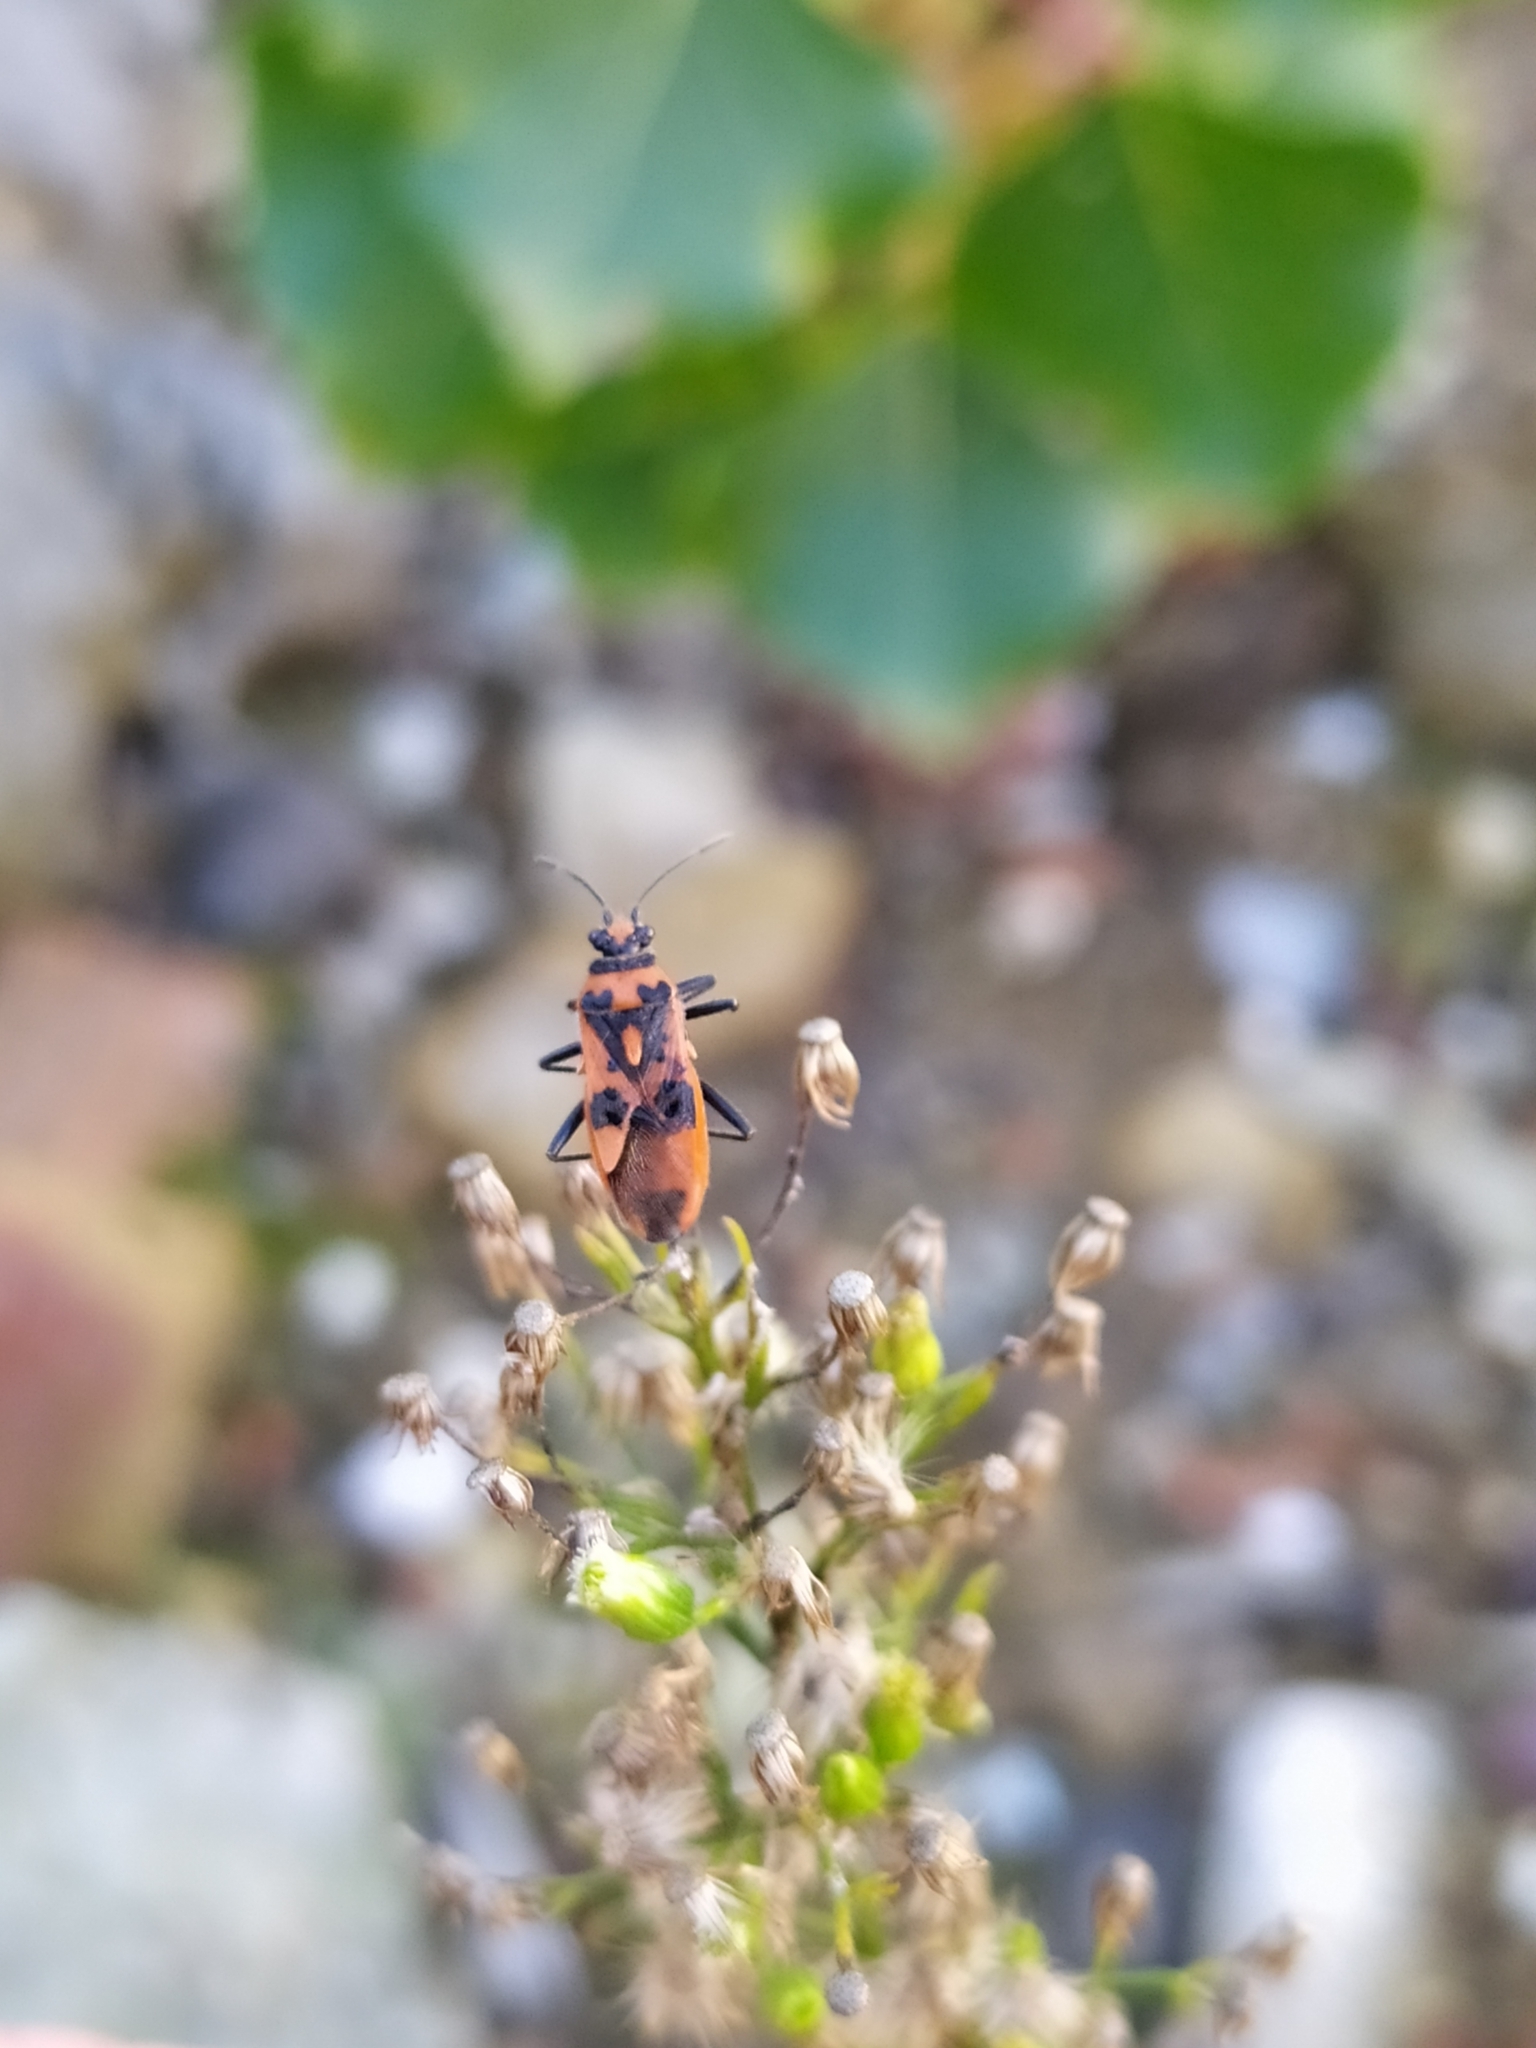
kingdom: Animalia
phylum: Arthropoda
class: Insecta
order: Hemiptera
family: Rhopalidae
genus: Corizus
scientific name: Corizus hyoscyami
